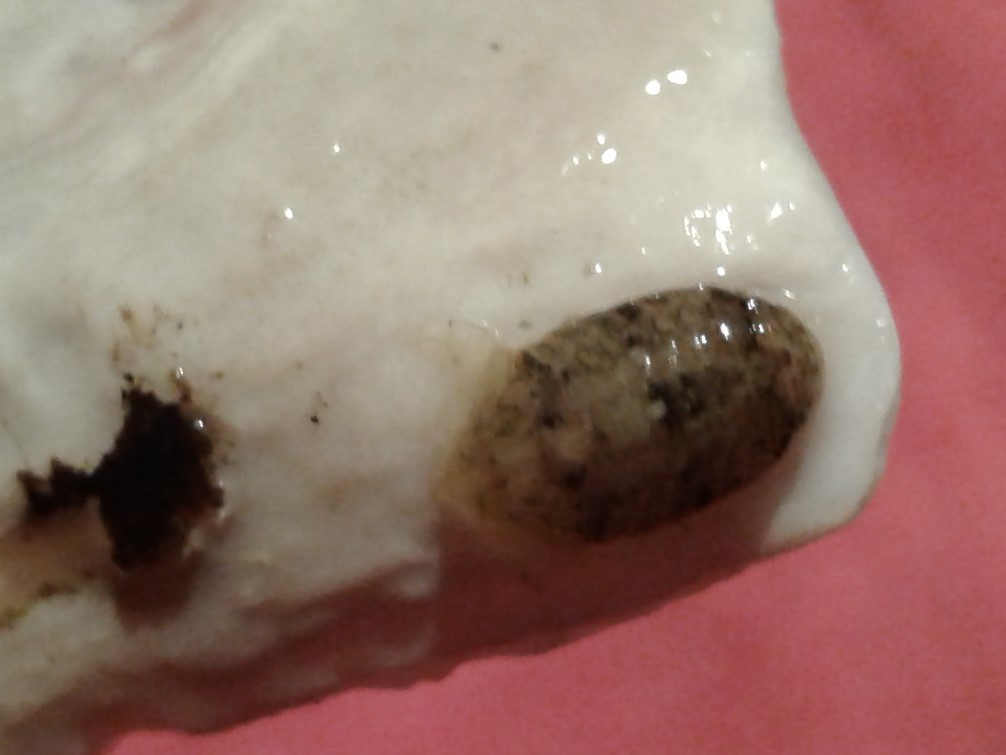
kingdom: Animalia
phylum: Arthropoda
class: Malacostraca
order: Isopoda
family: Sphaeromatidae
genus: Exosphaeroma
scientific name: Exosphaeroma gigas
